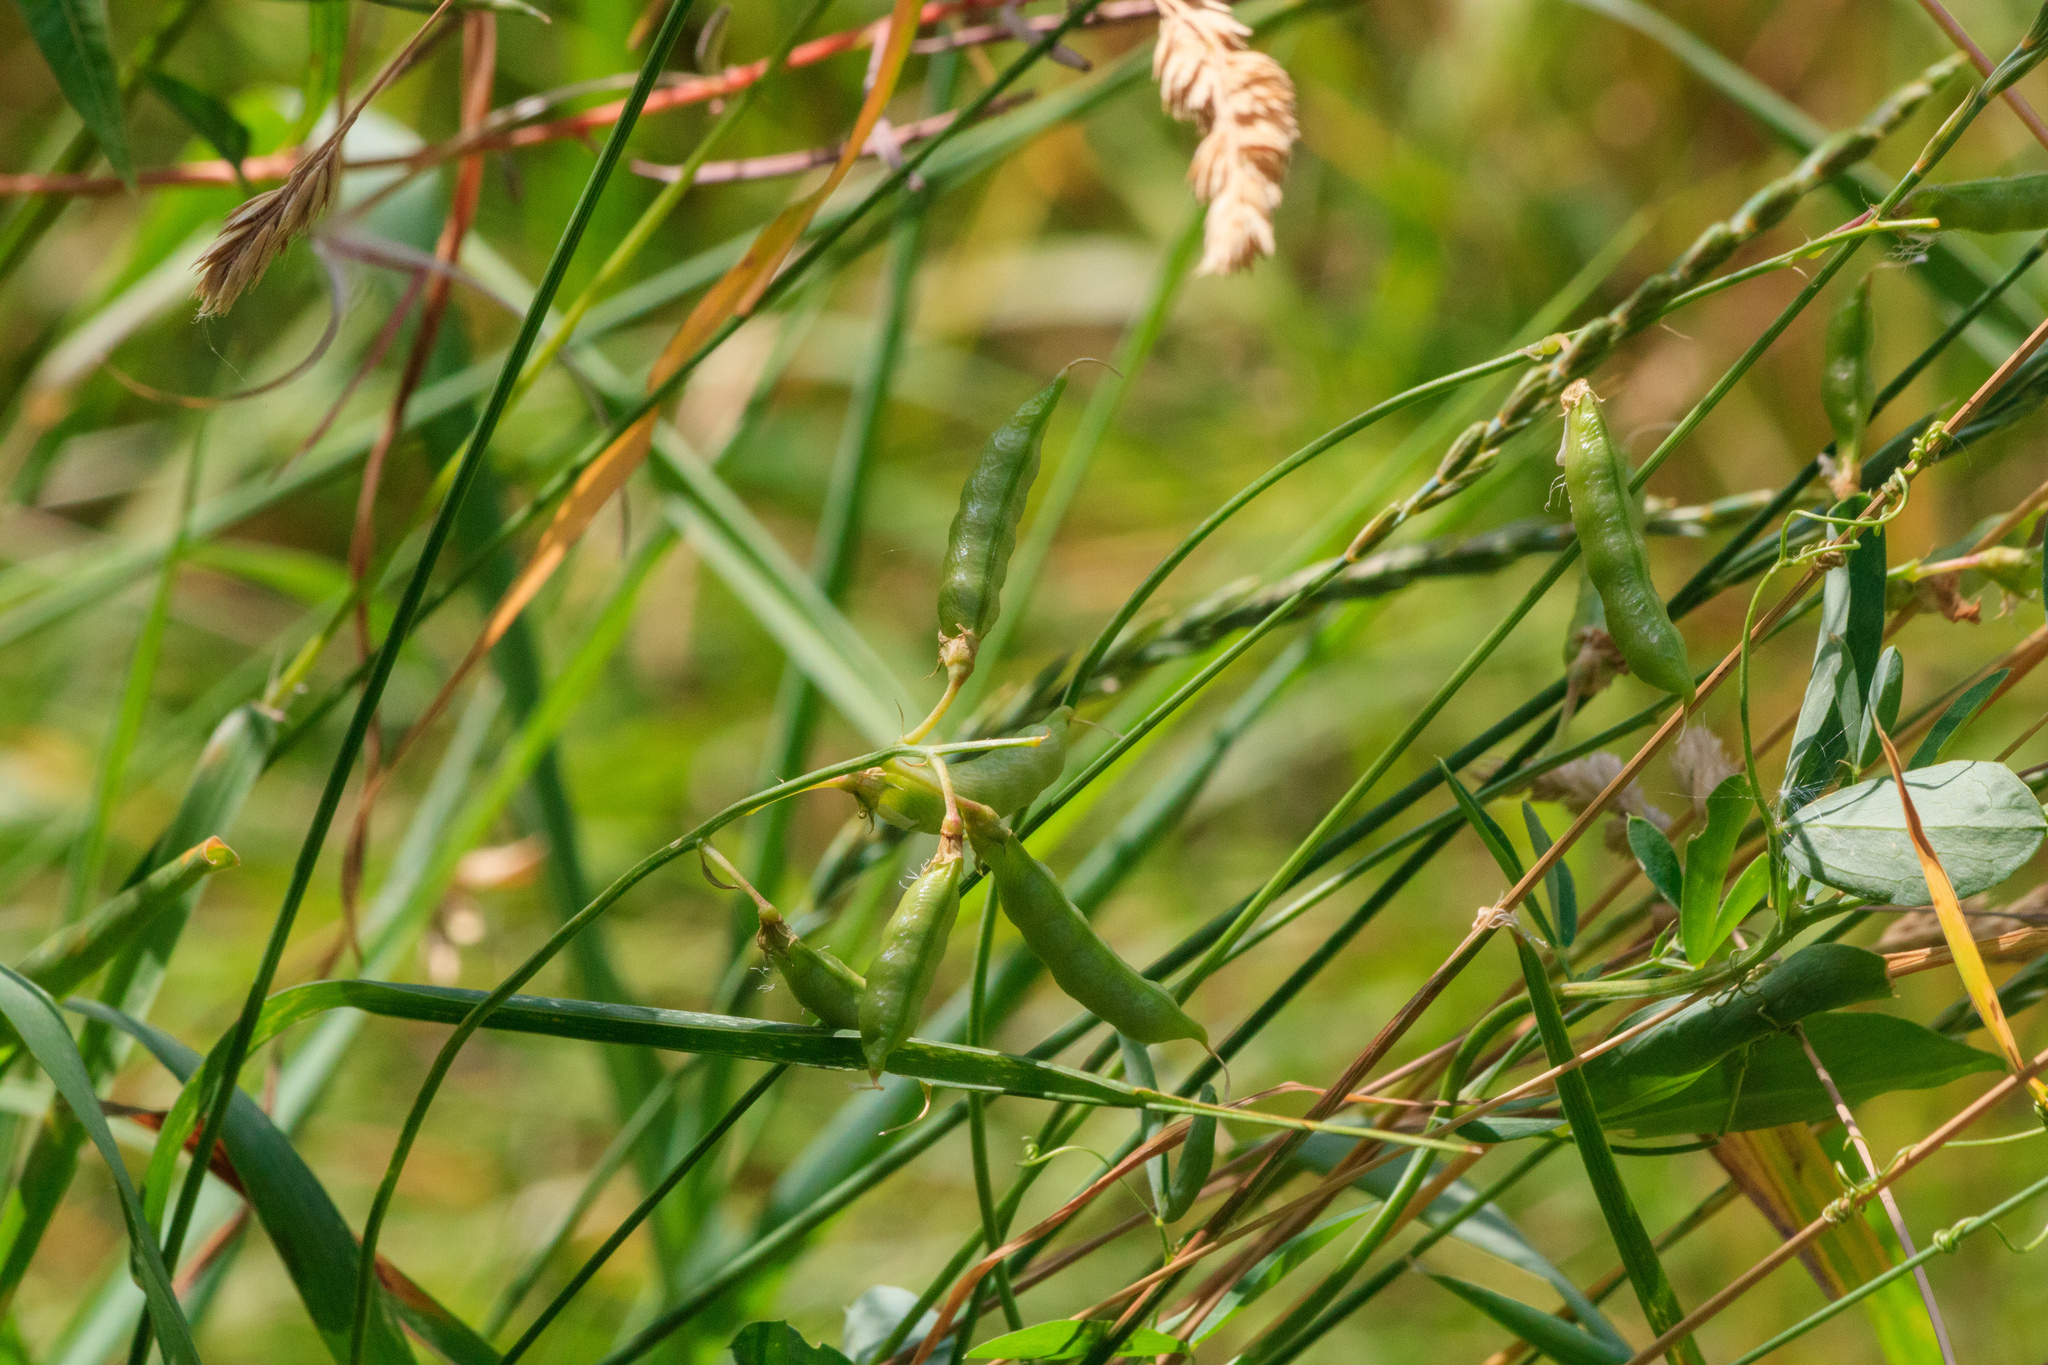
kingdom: Plantae
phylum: Tracheophyta
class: Magnoliopsida
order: Fabales
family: Fabaceae
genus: Vicia
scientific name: Vicia sepium
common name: Bush vetch
